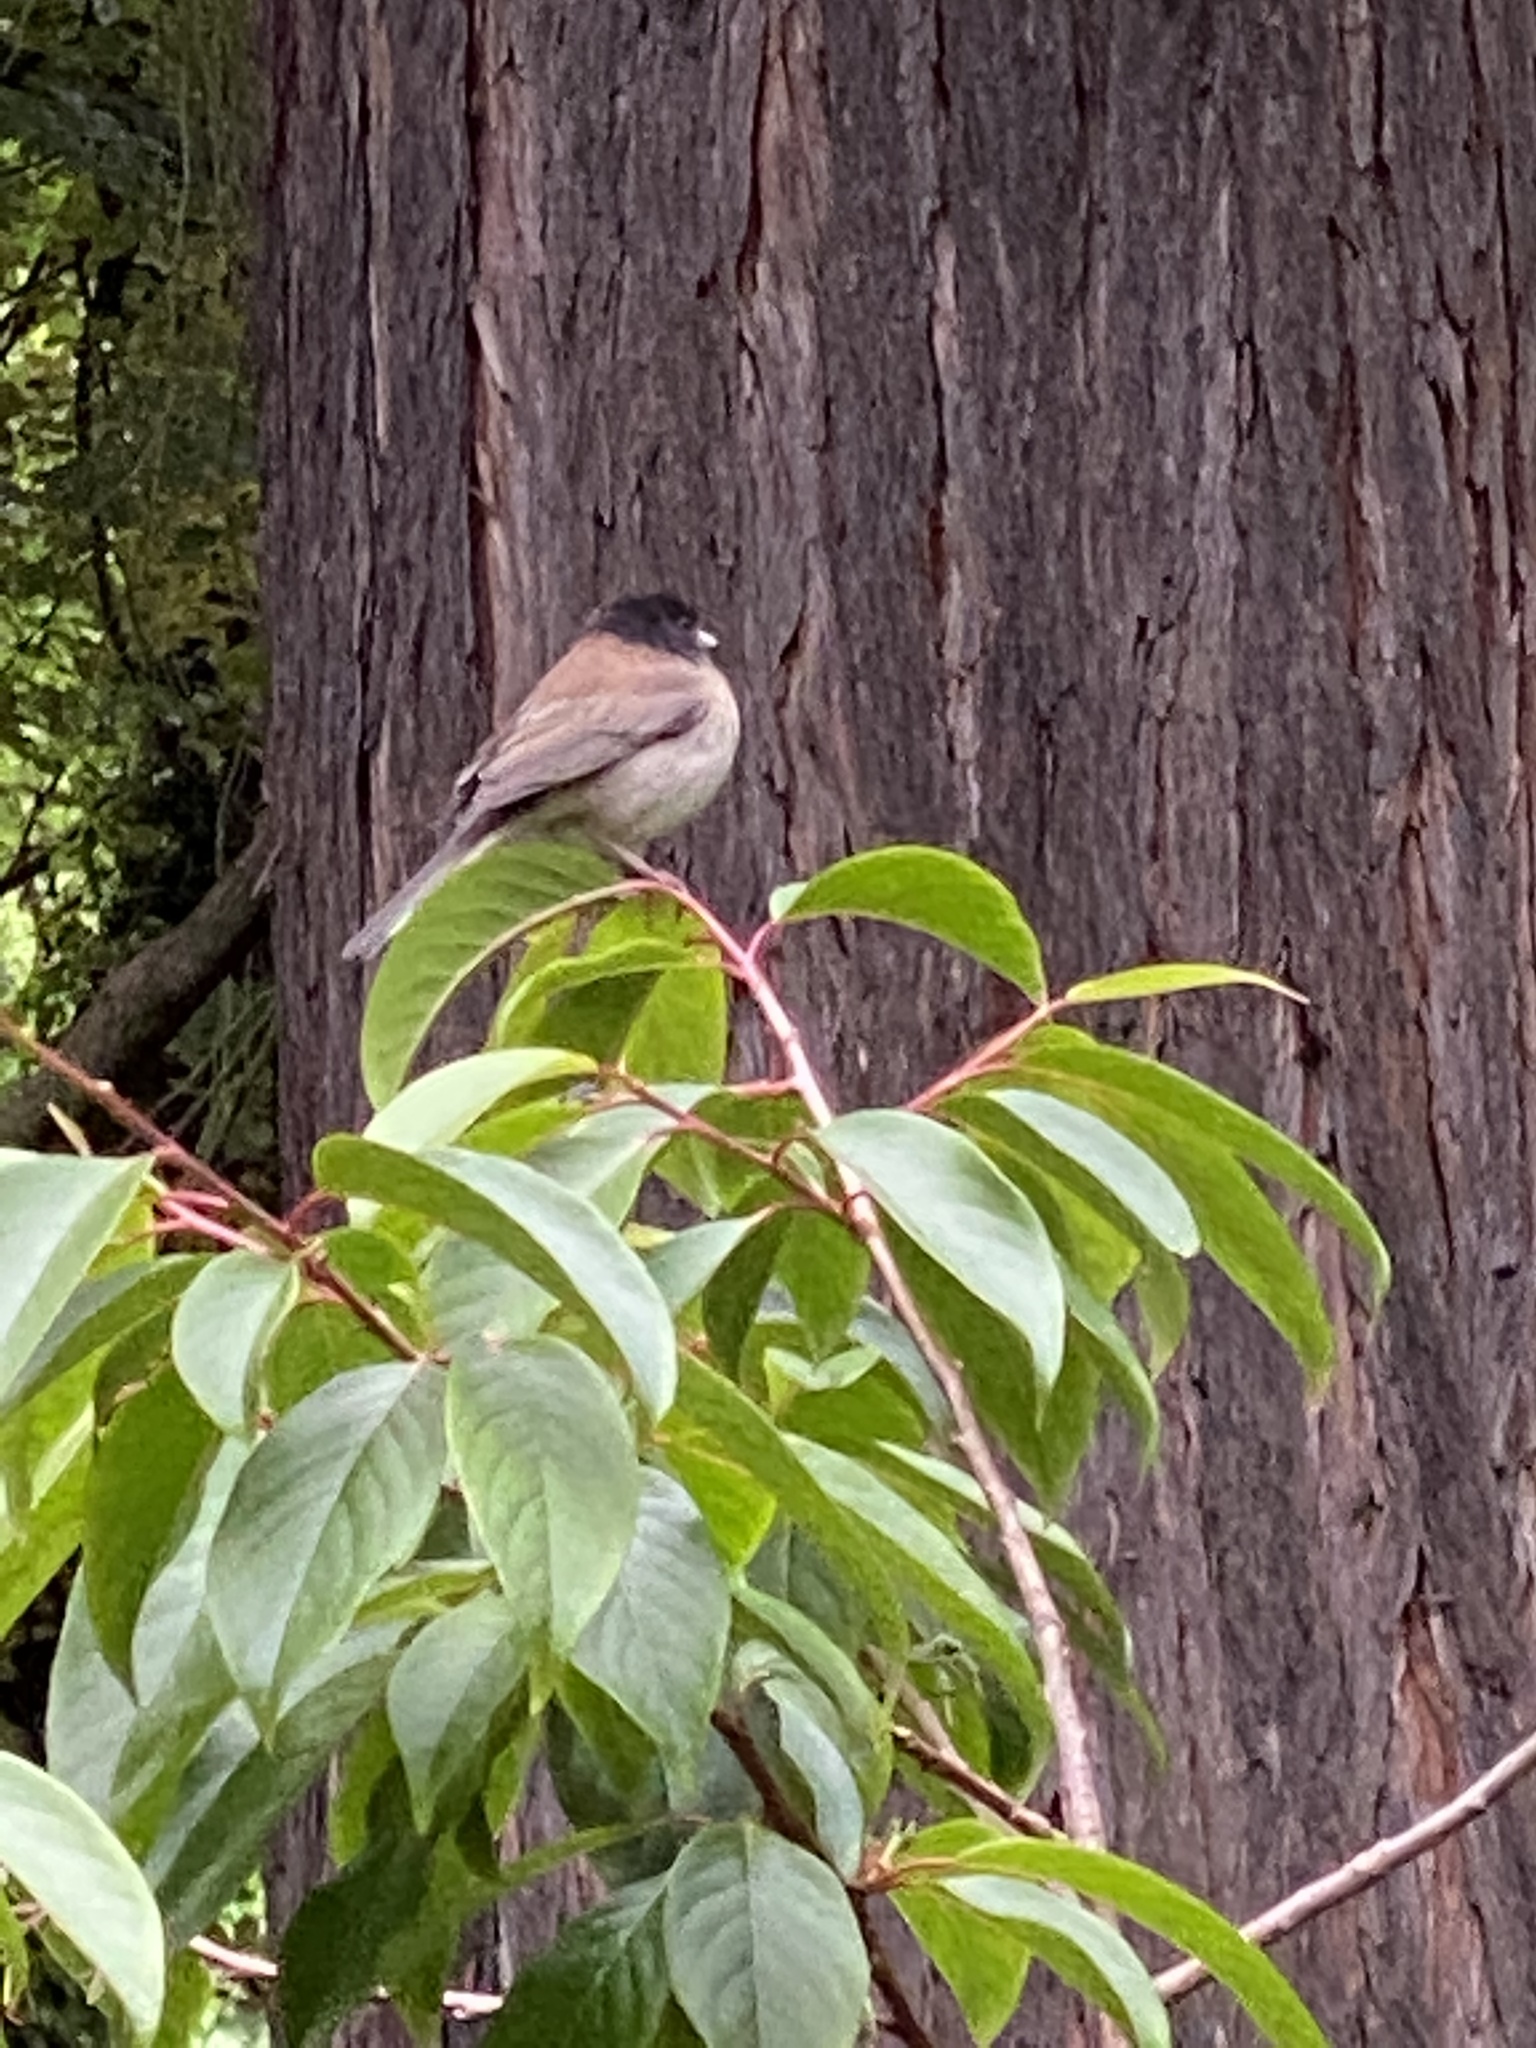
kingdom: Animalia
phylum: Chordata
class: Aves
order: Passeriformes
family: Passerellidae
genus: Junco
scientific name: Junco hyemalis
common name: Dark-eyed junco
